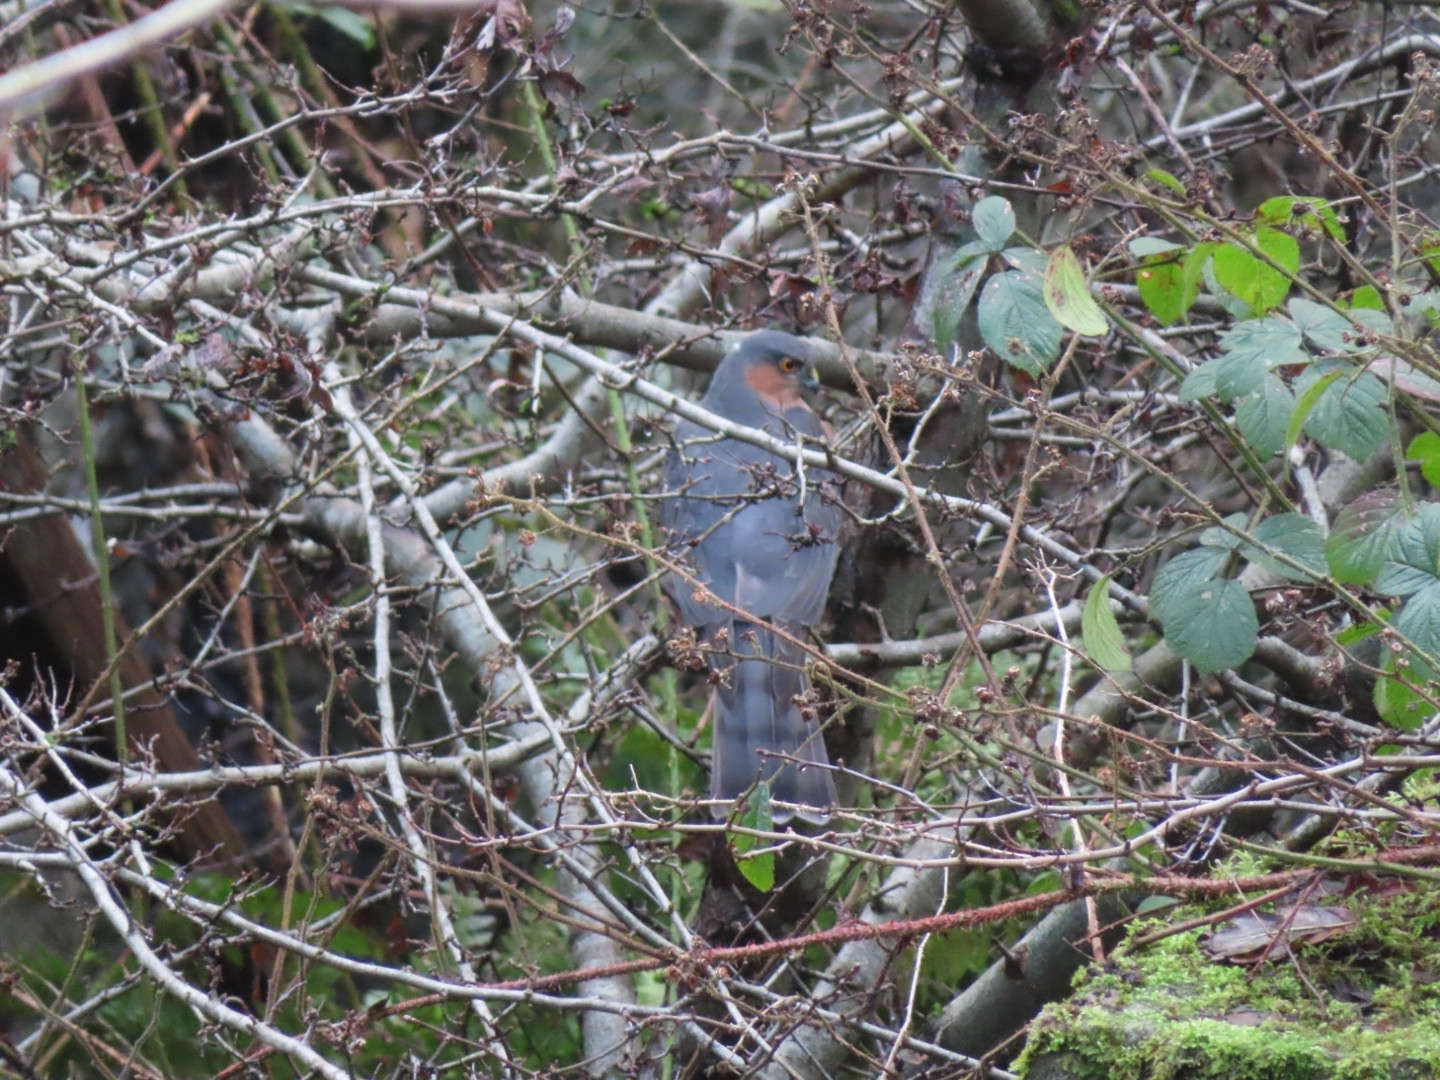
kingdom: Animalia
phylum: Chordata
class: Aves
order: Accipitriformes
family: Accipitridae
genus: Accipiter
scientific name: Accipiter nisus
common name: Eurasian sparrowhawk
